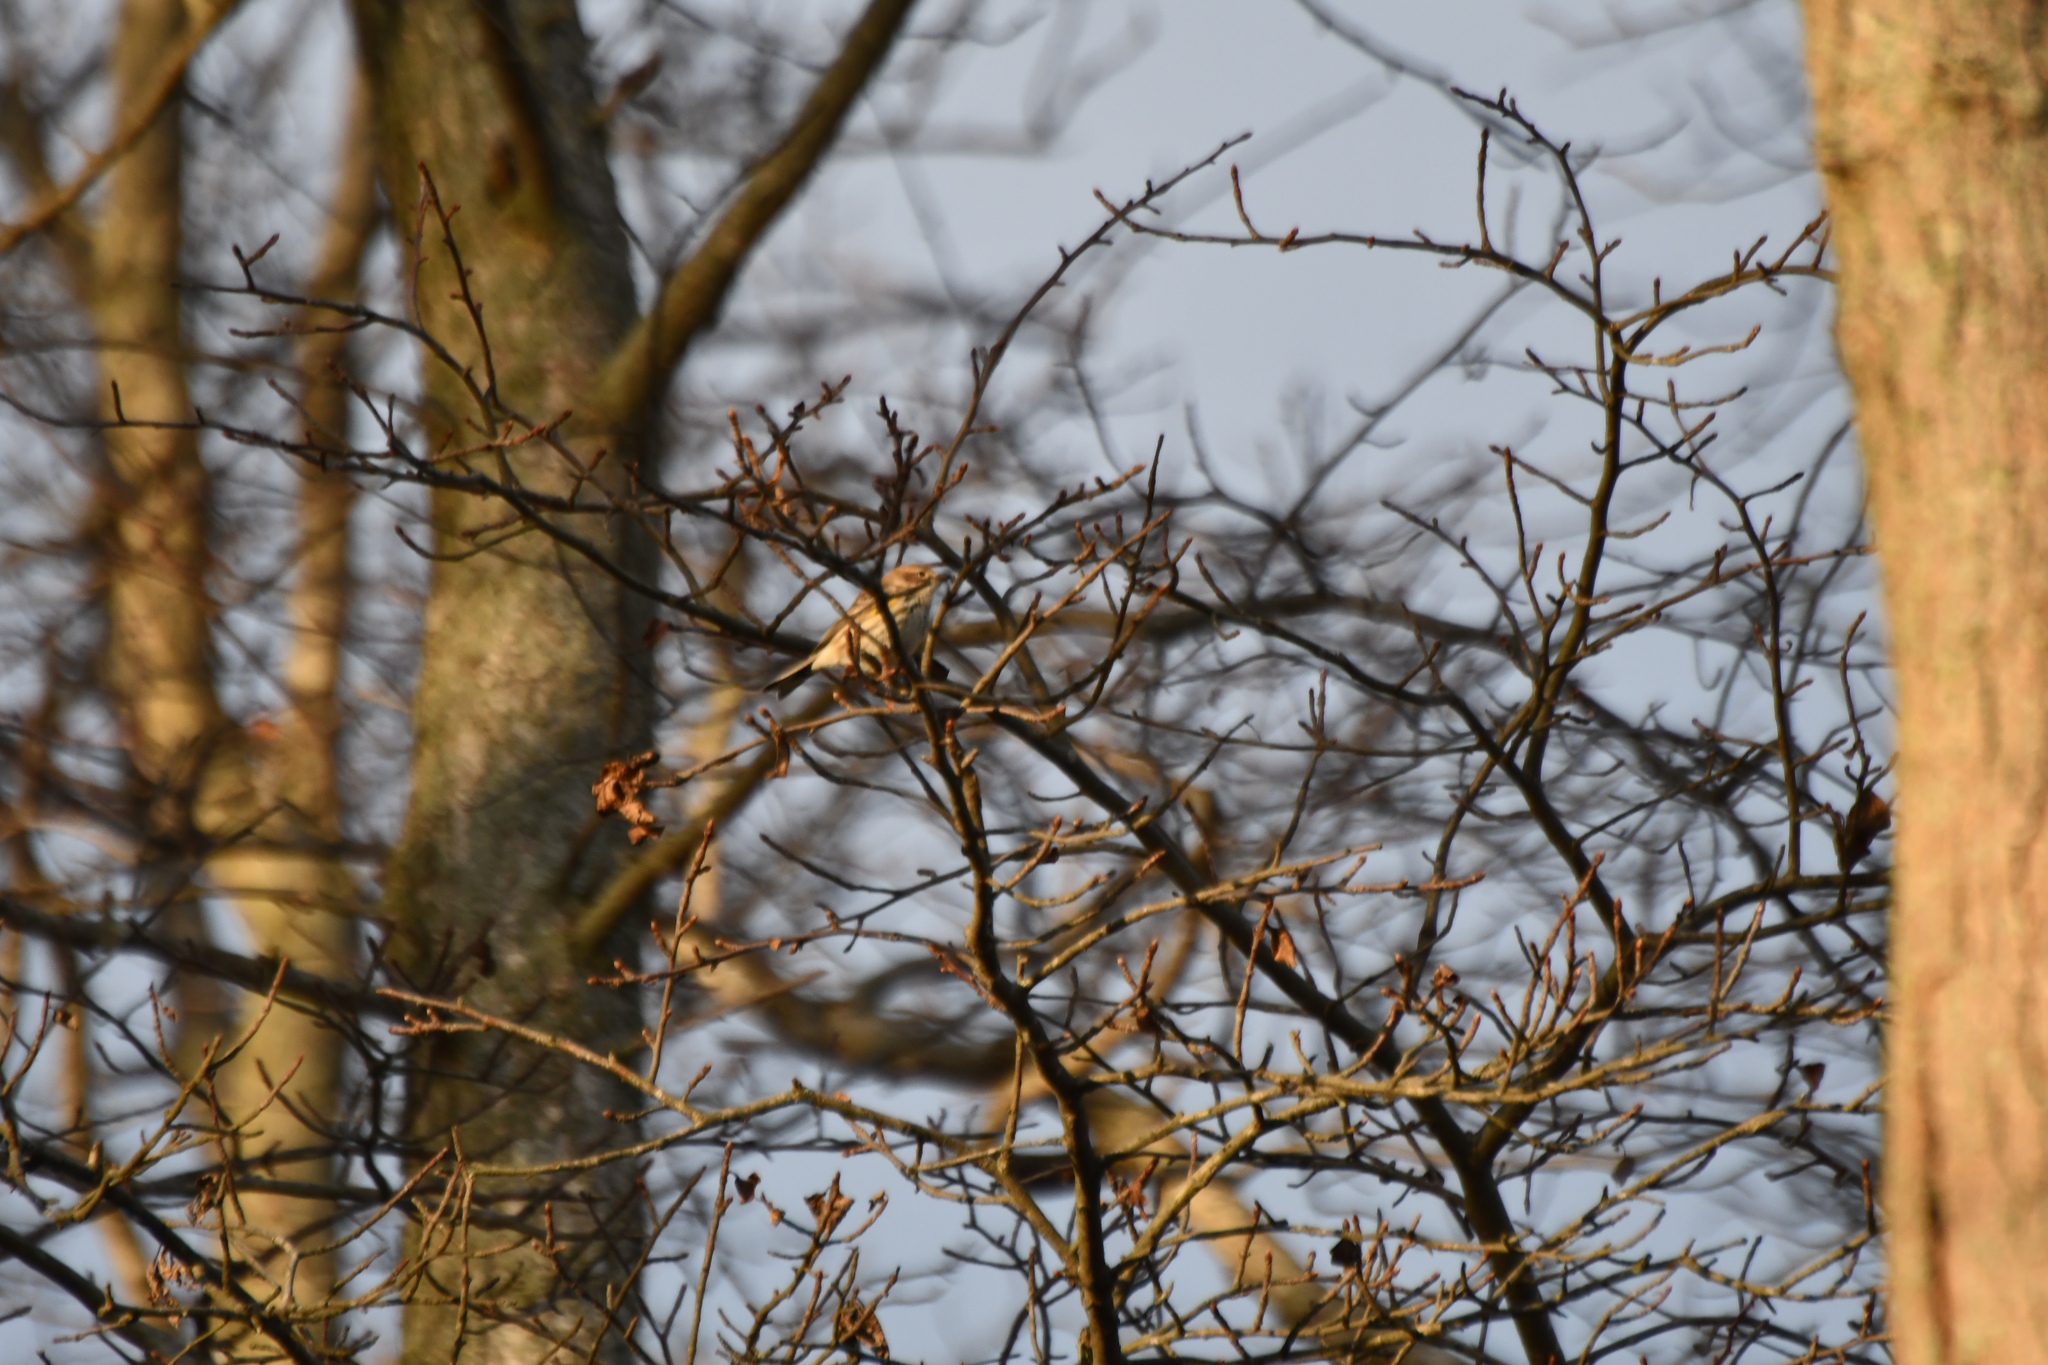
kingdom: Animalia
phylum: Chordata
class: Aves
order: Passeriformes
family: Parulidae
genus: Setophaga
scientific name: Setophaga coronata
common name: Myrtle warbler
